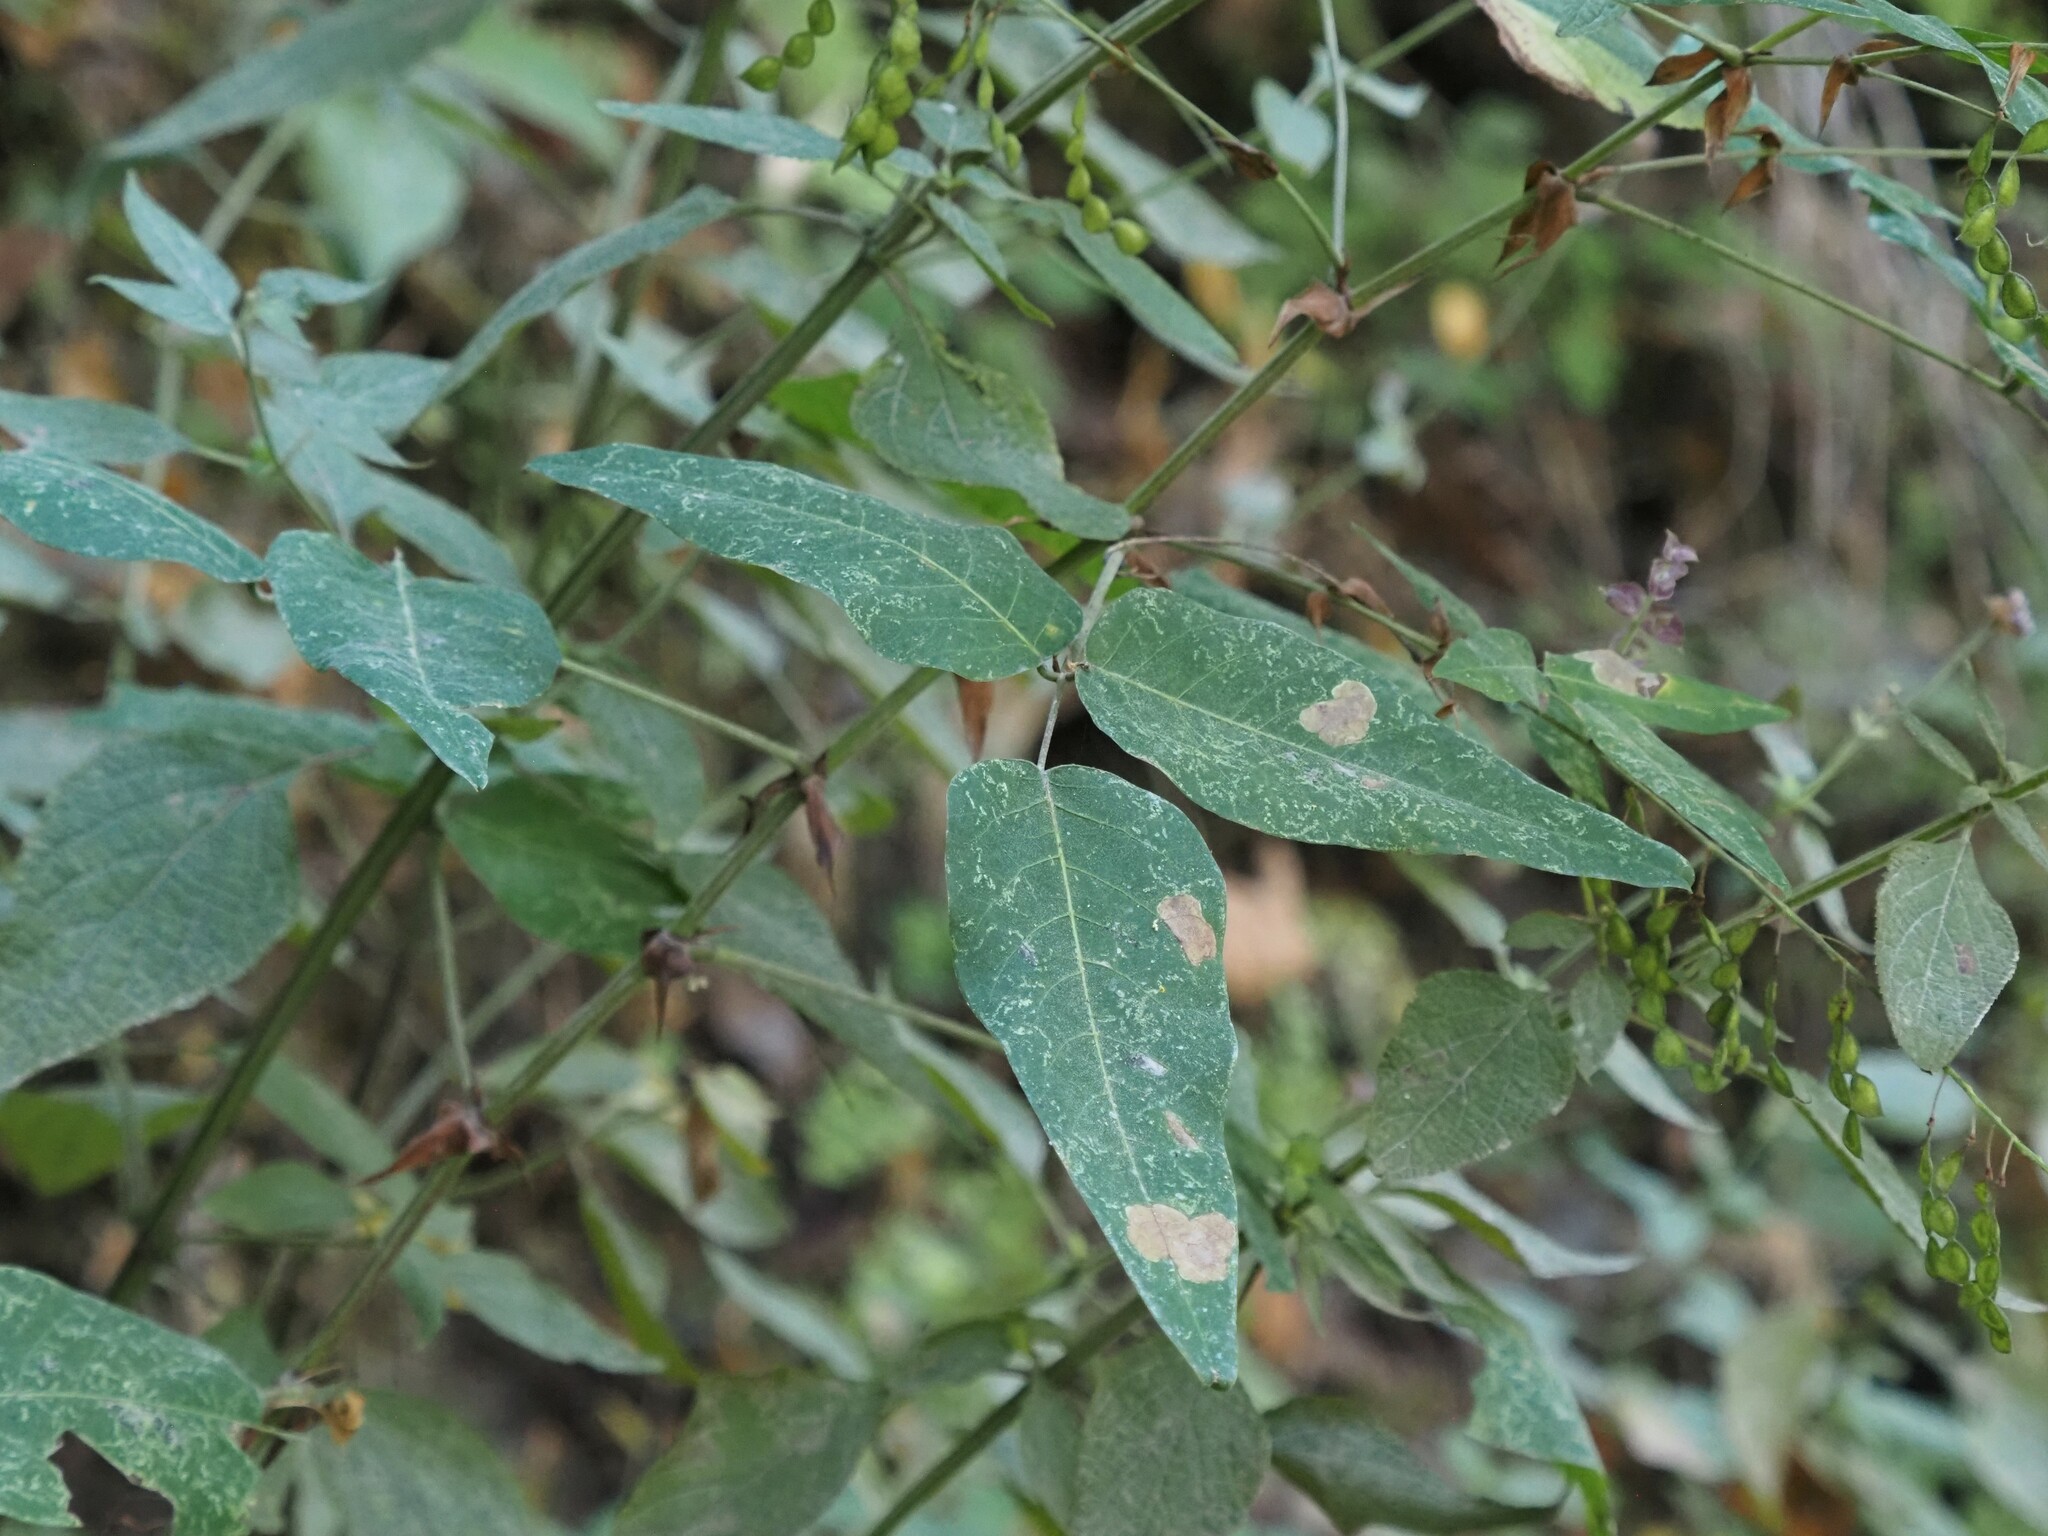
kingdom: Plantae
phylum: Tracheophyta
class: Magnoliopsida
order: Lamiales
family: Lamiaceae
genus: Salvia
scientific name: Salvia mocinoi
